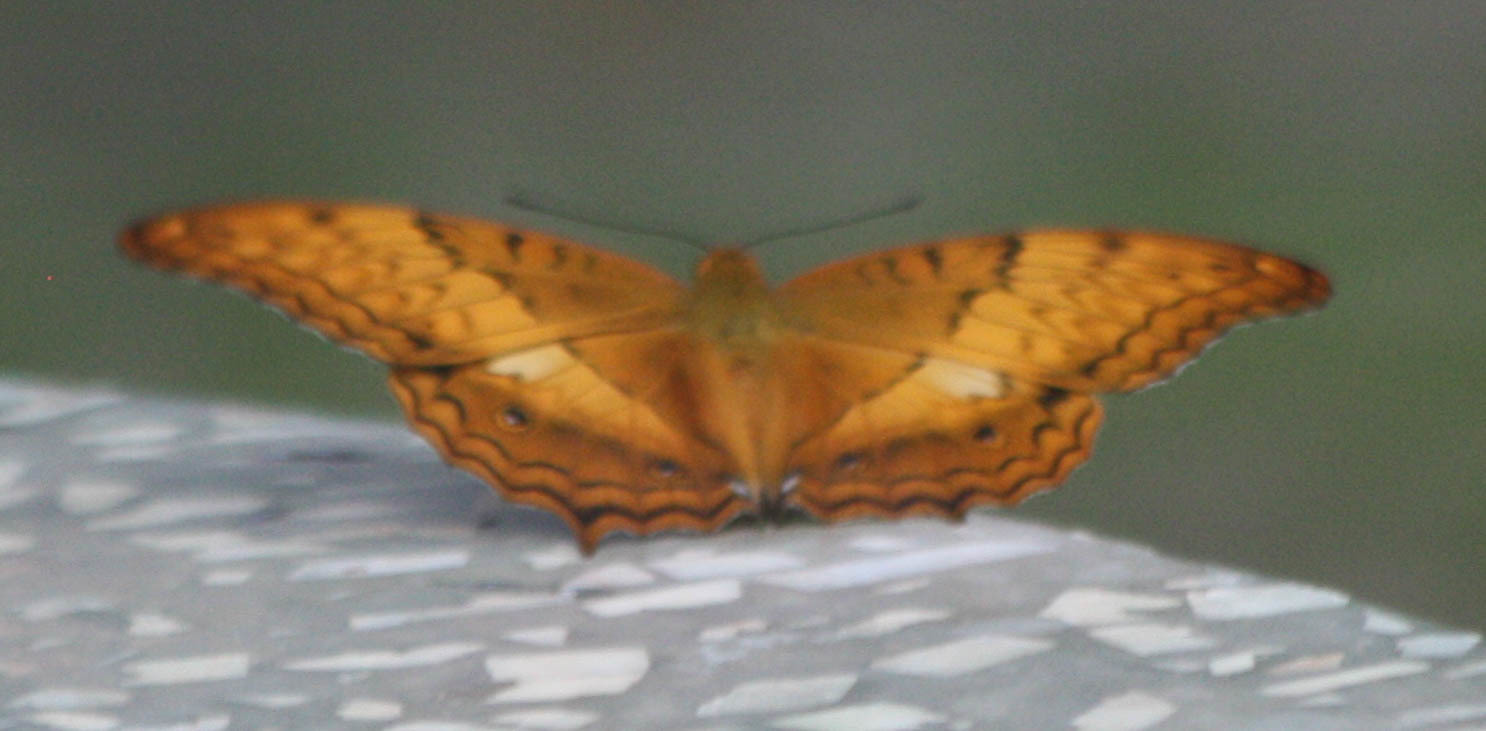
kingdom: Animalia
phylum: Arthropoda
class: Insecta
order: Lepidoptera
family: Nymphalidae
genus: Vindula
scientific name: Vindula erota
